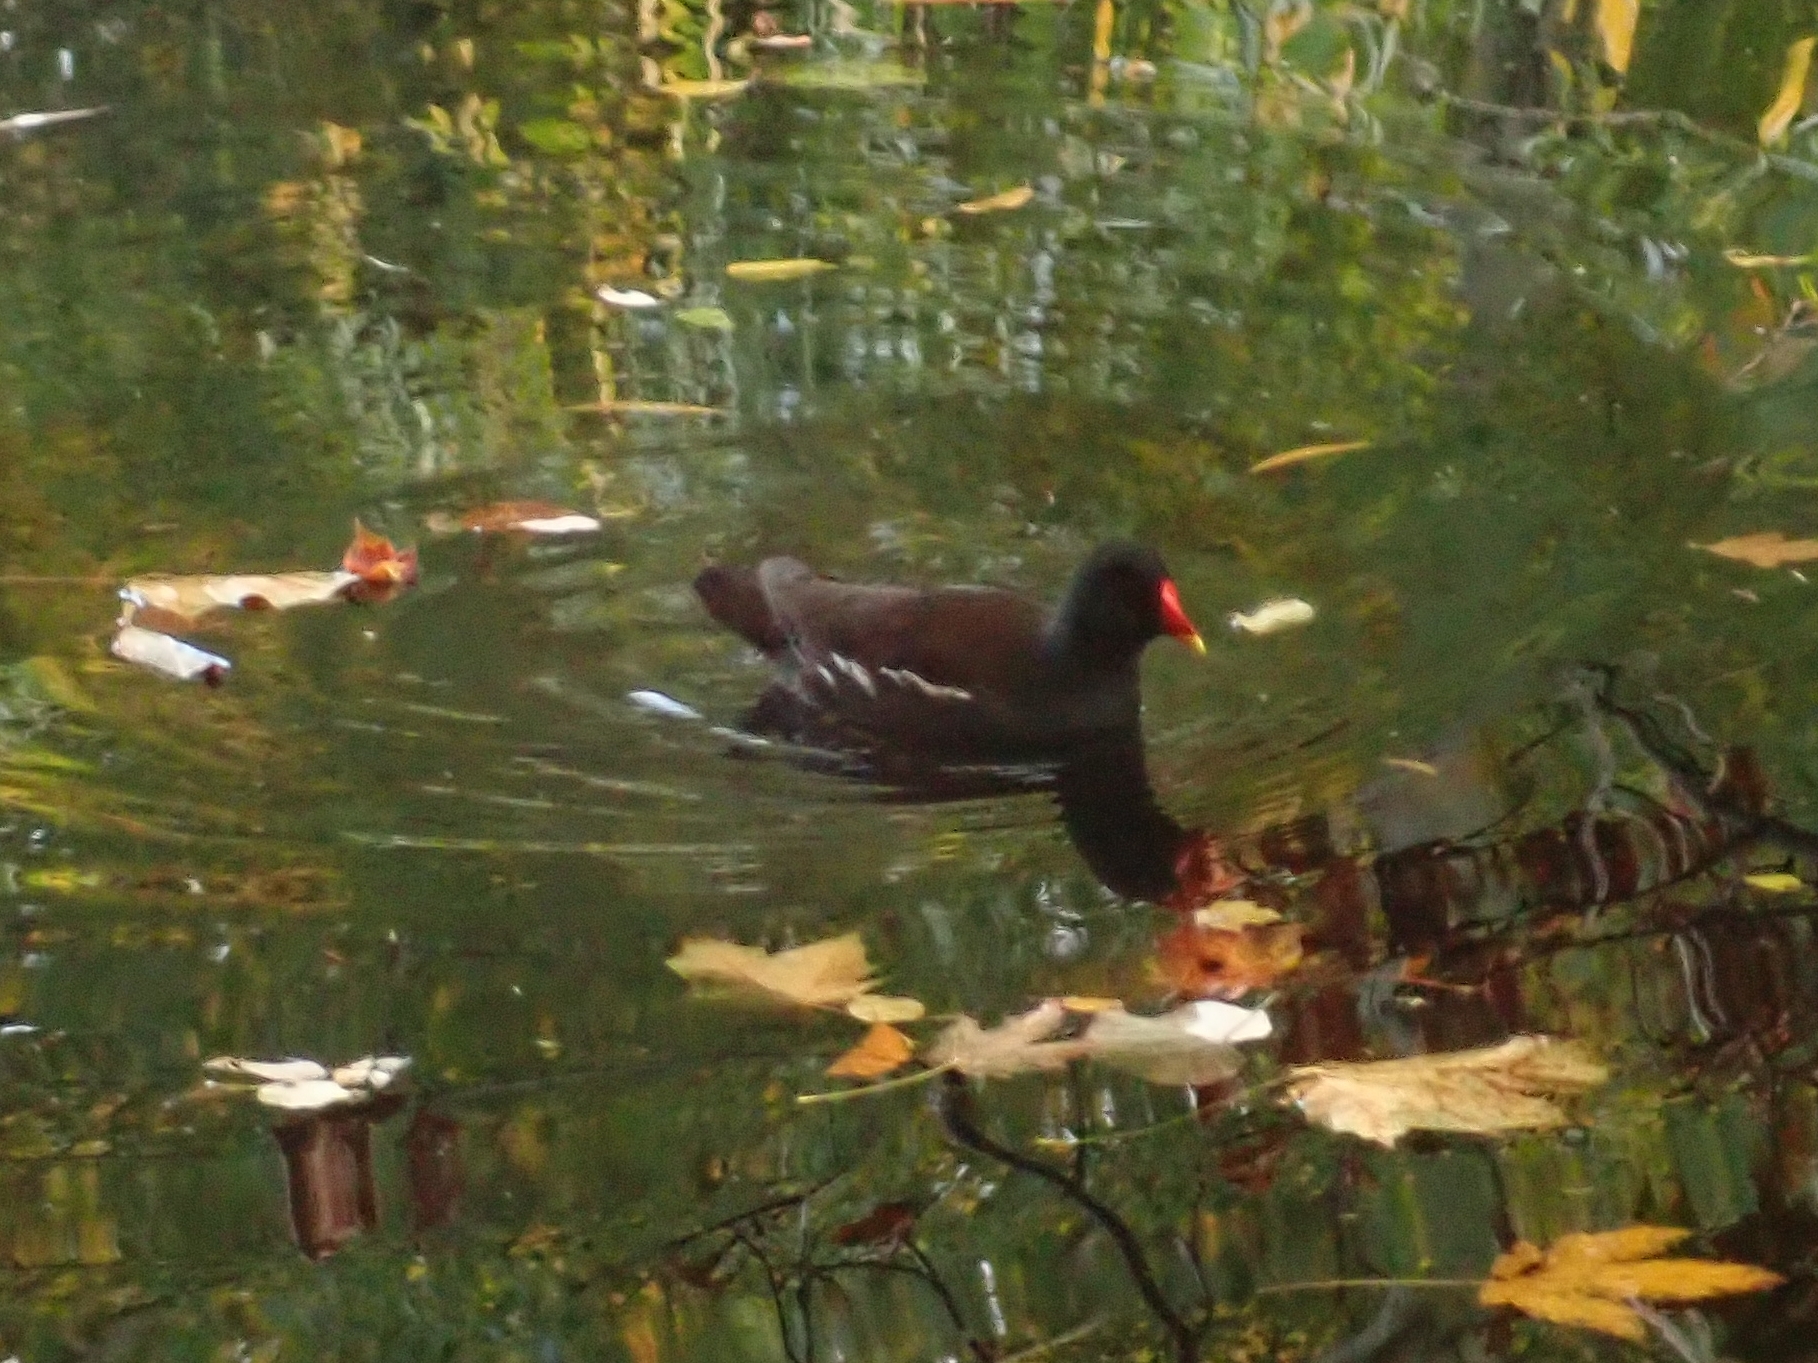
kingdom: Animalia
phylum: Chordata
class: Aves
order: Gruiformes
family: Rallidae
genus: Gallinula
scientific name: Gallinula chloropus
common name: Common moorhen
